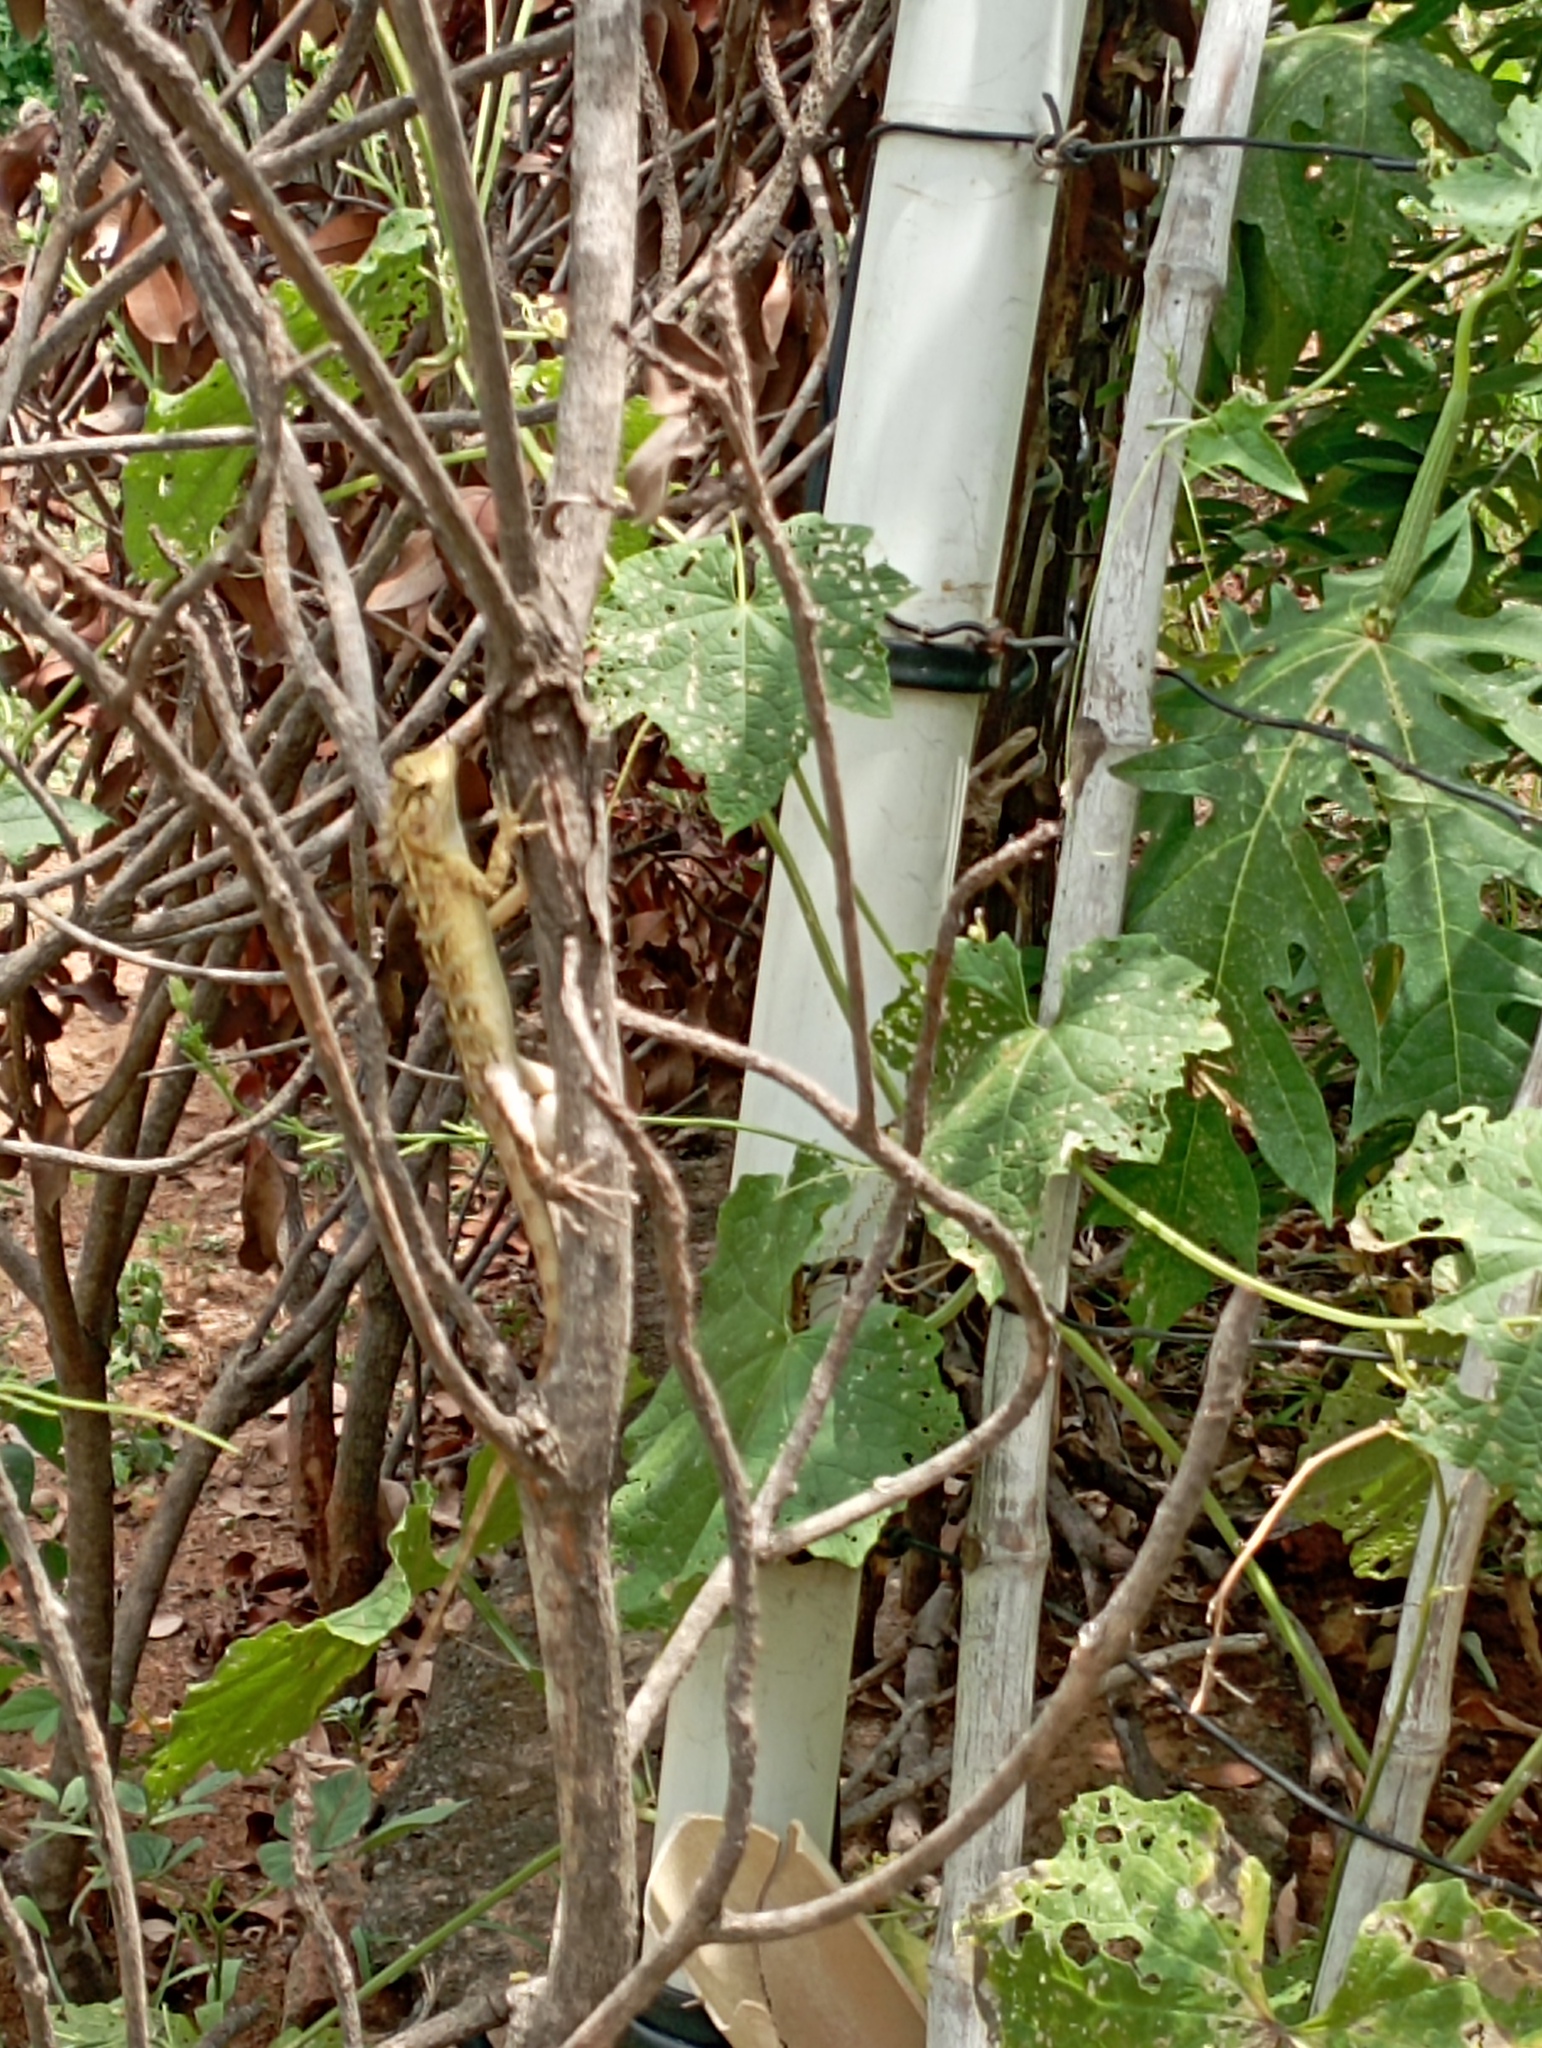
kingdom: Animalia
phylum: Chordata
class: Squamata
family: Agamidae
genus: Calotes
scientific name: Calotes versicolor
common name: Oriental garden lizard
